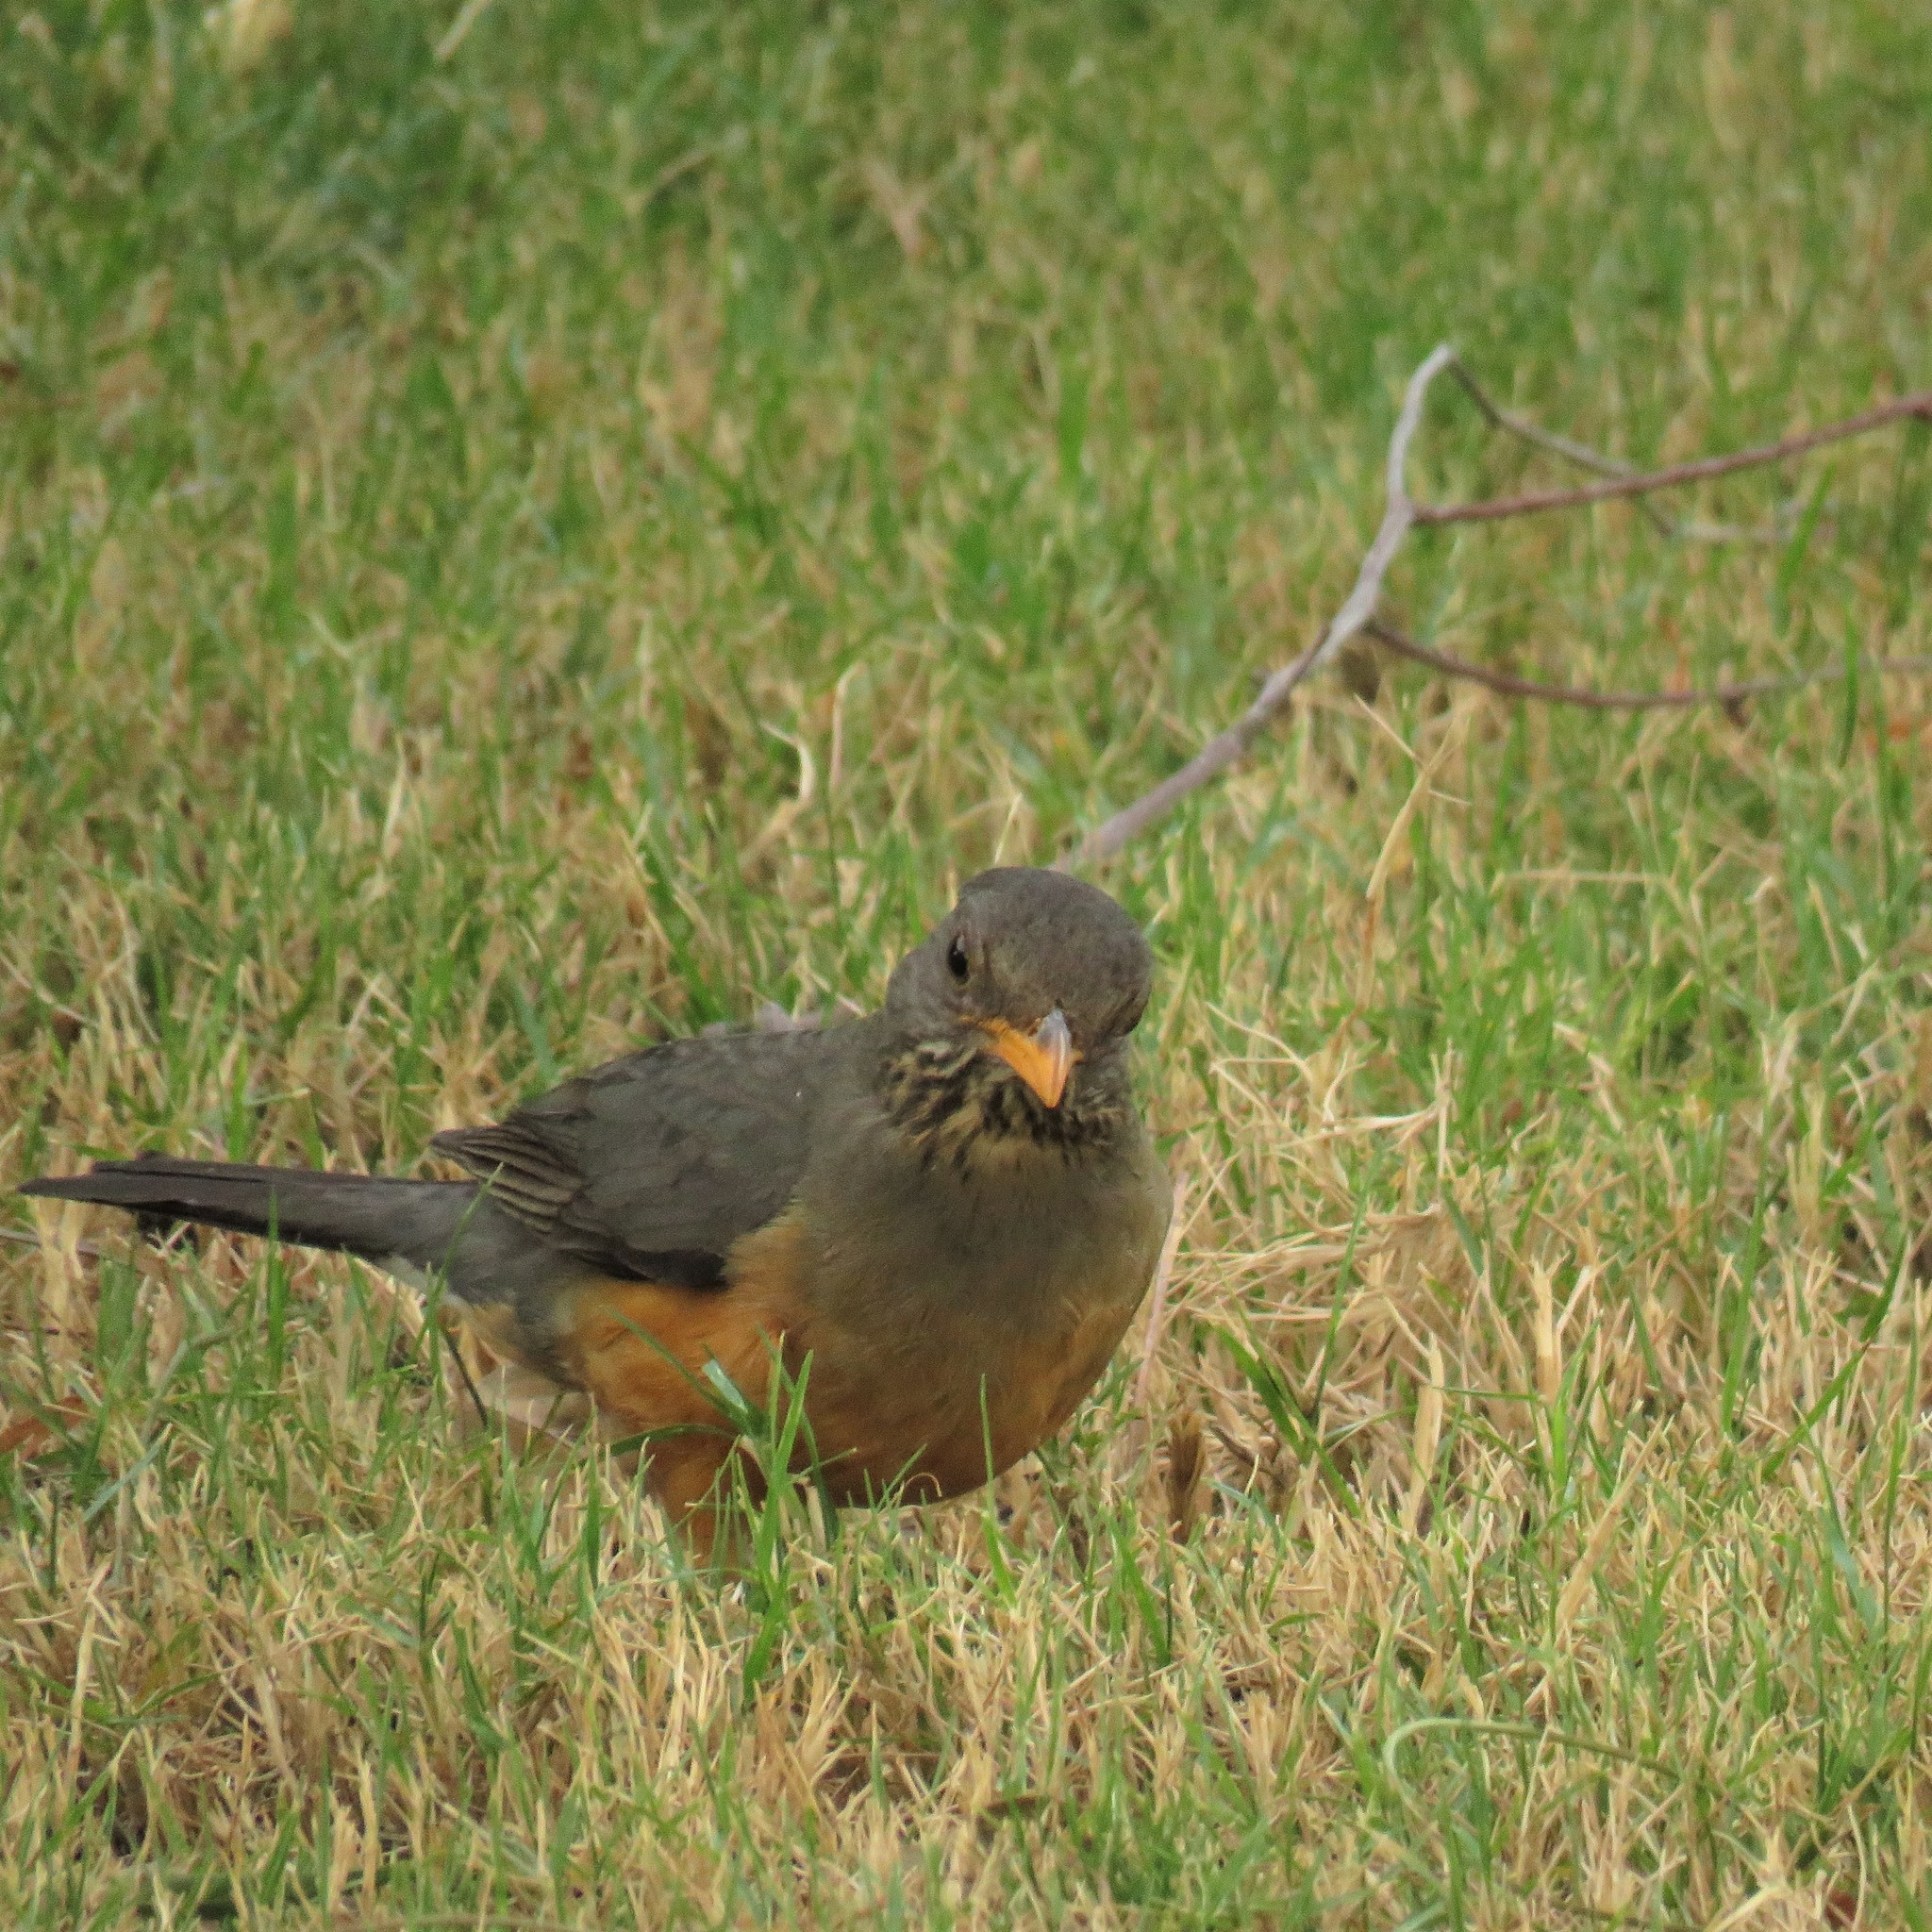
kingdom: Animalia
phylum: Chordata
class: Aves
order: Passeriformes
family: Turdidae
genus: Turdus
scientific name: Turdus olivaceus
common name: Olive thrush
